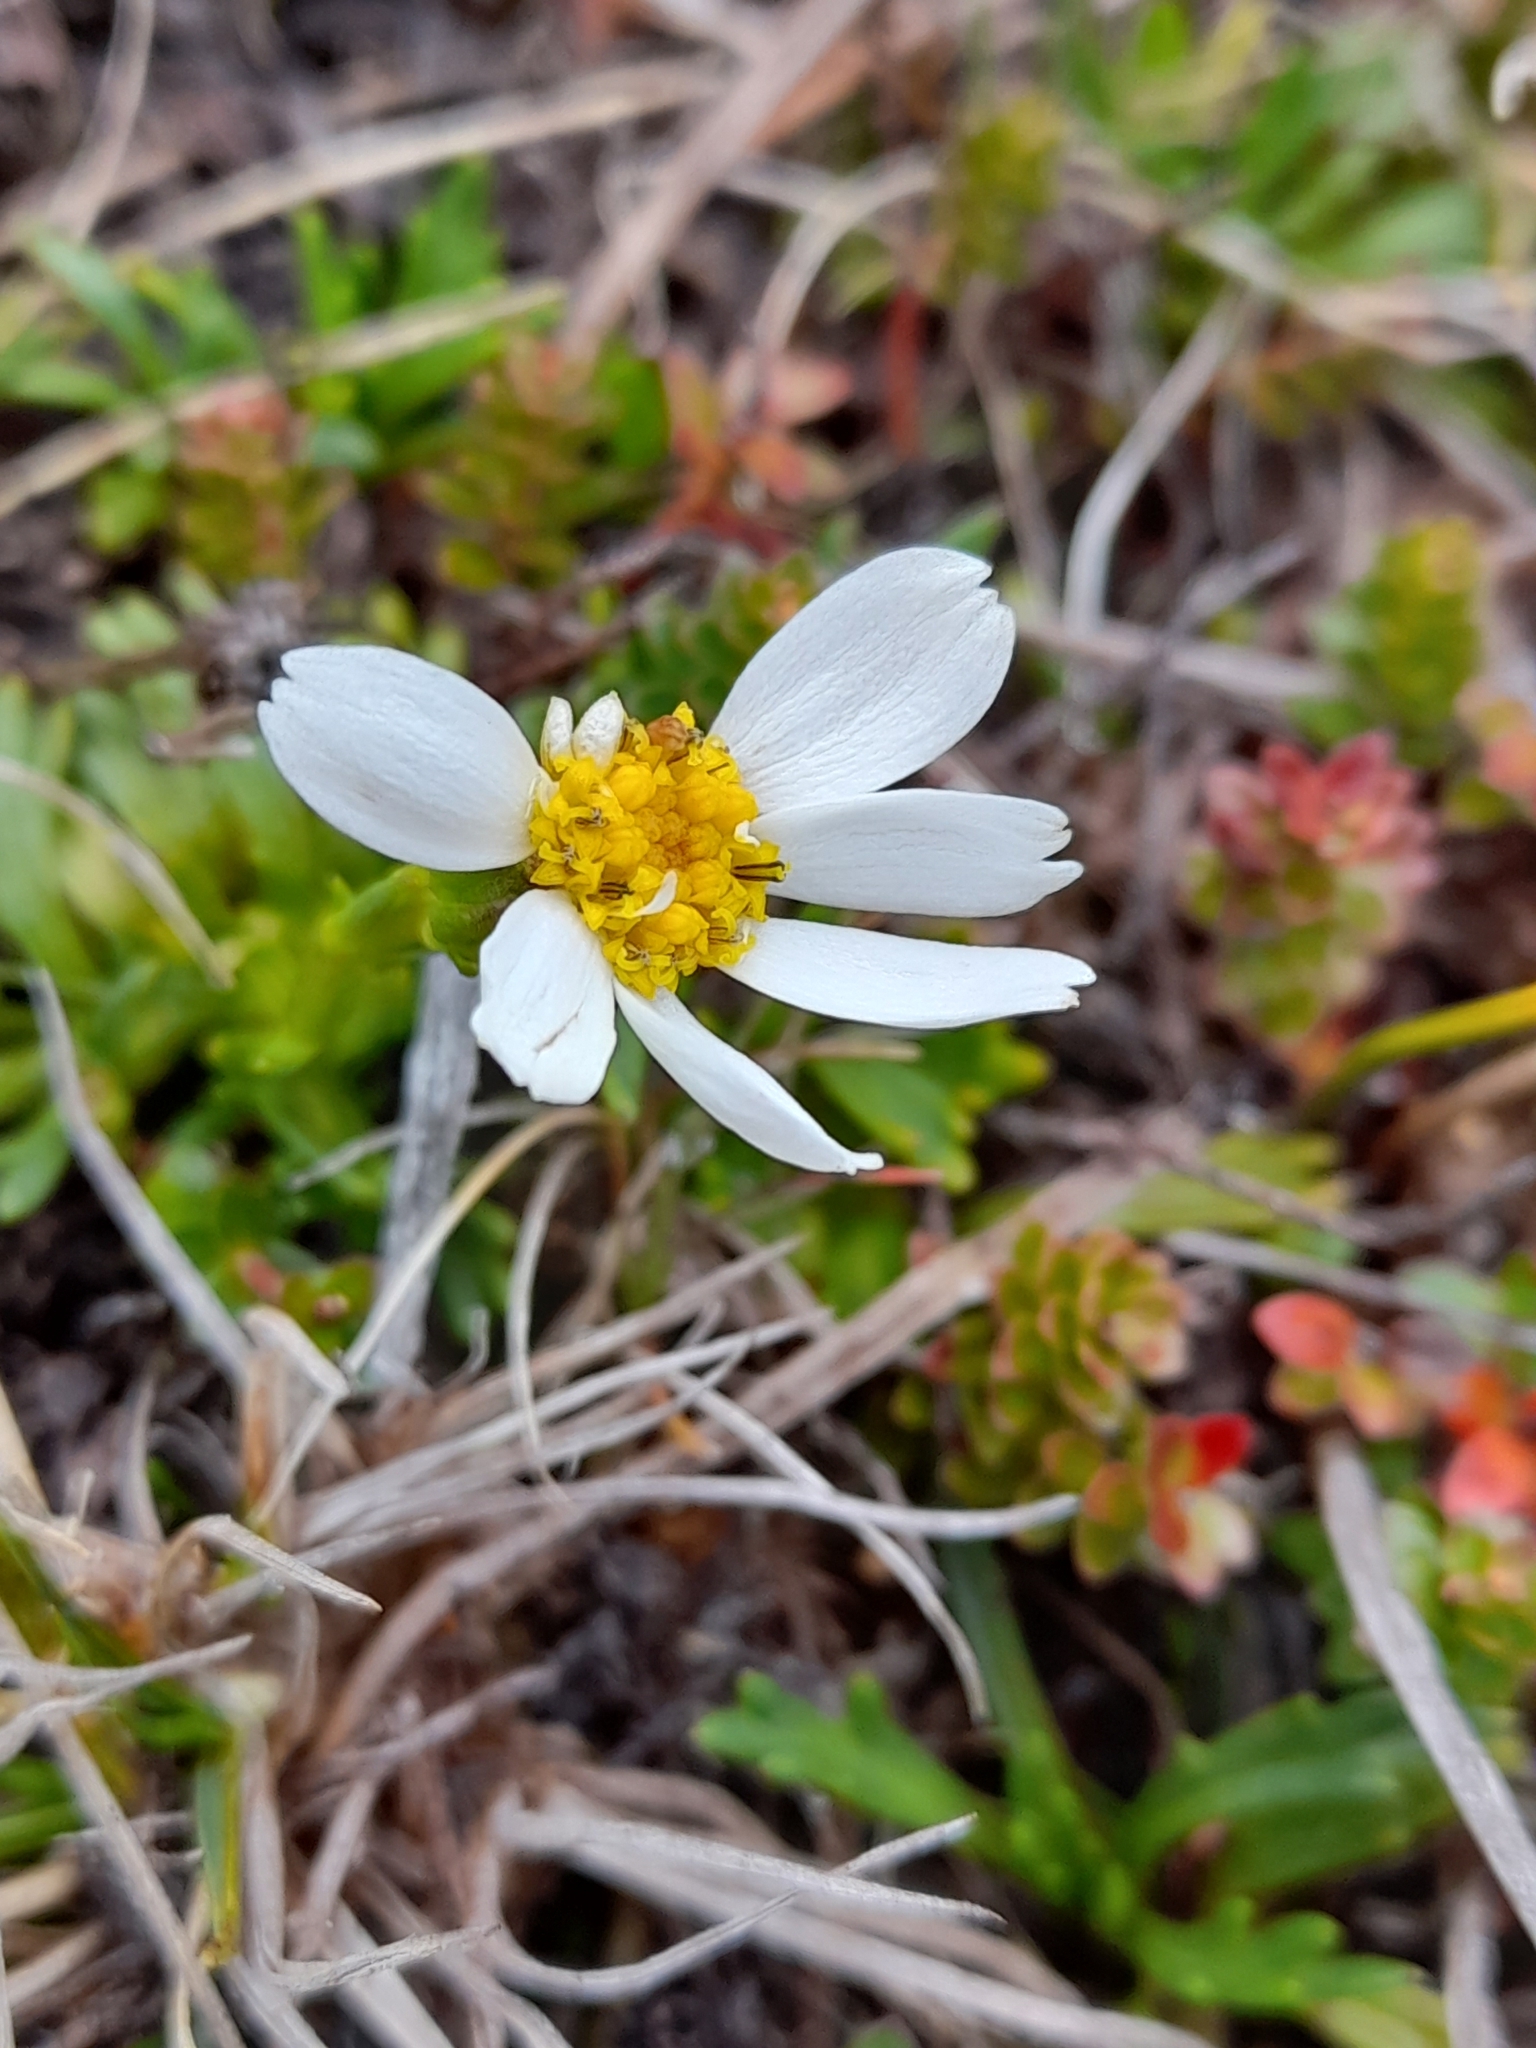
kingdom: Plantae
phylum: Tracheophyta
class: Magnoliopsida
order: Asterales
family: Asteraceae
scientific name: Asteraceae
